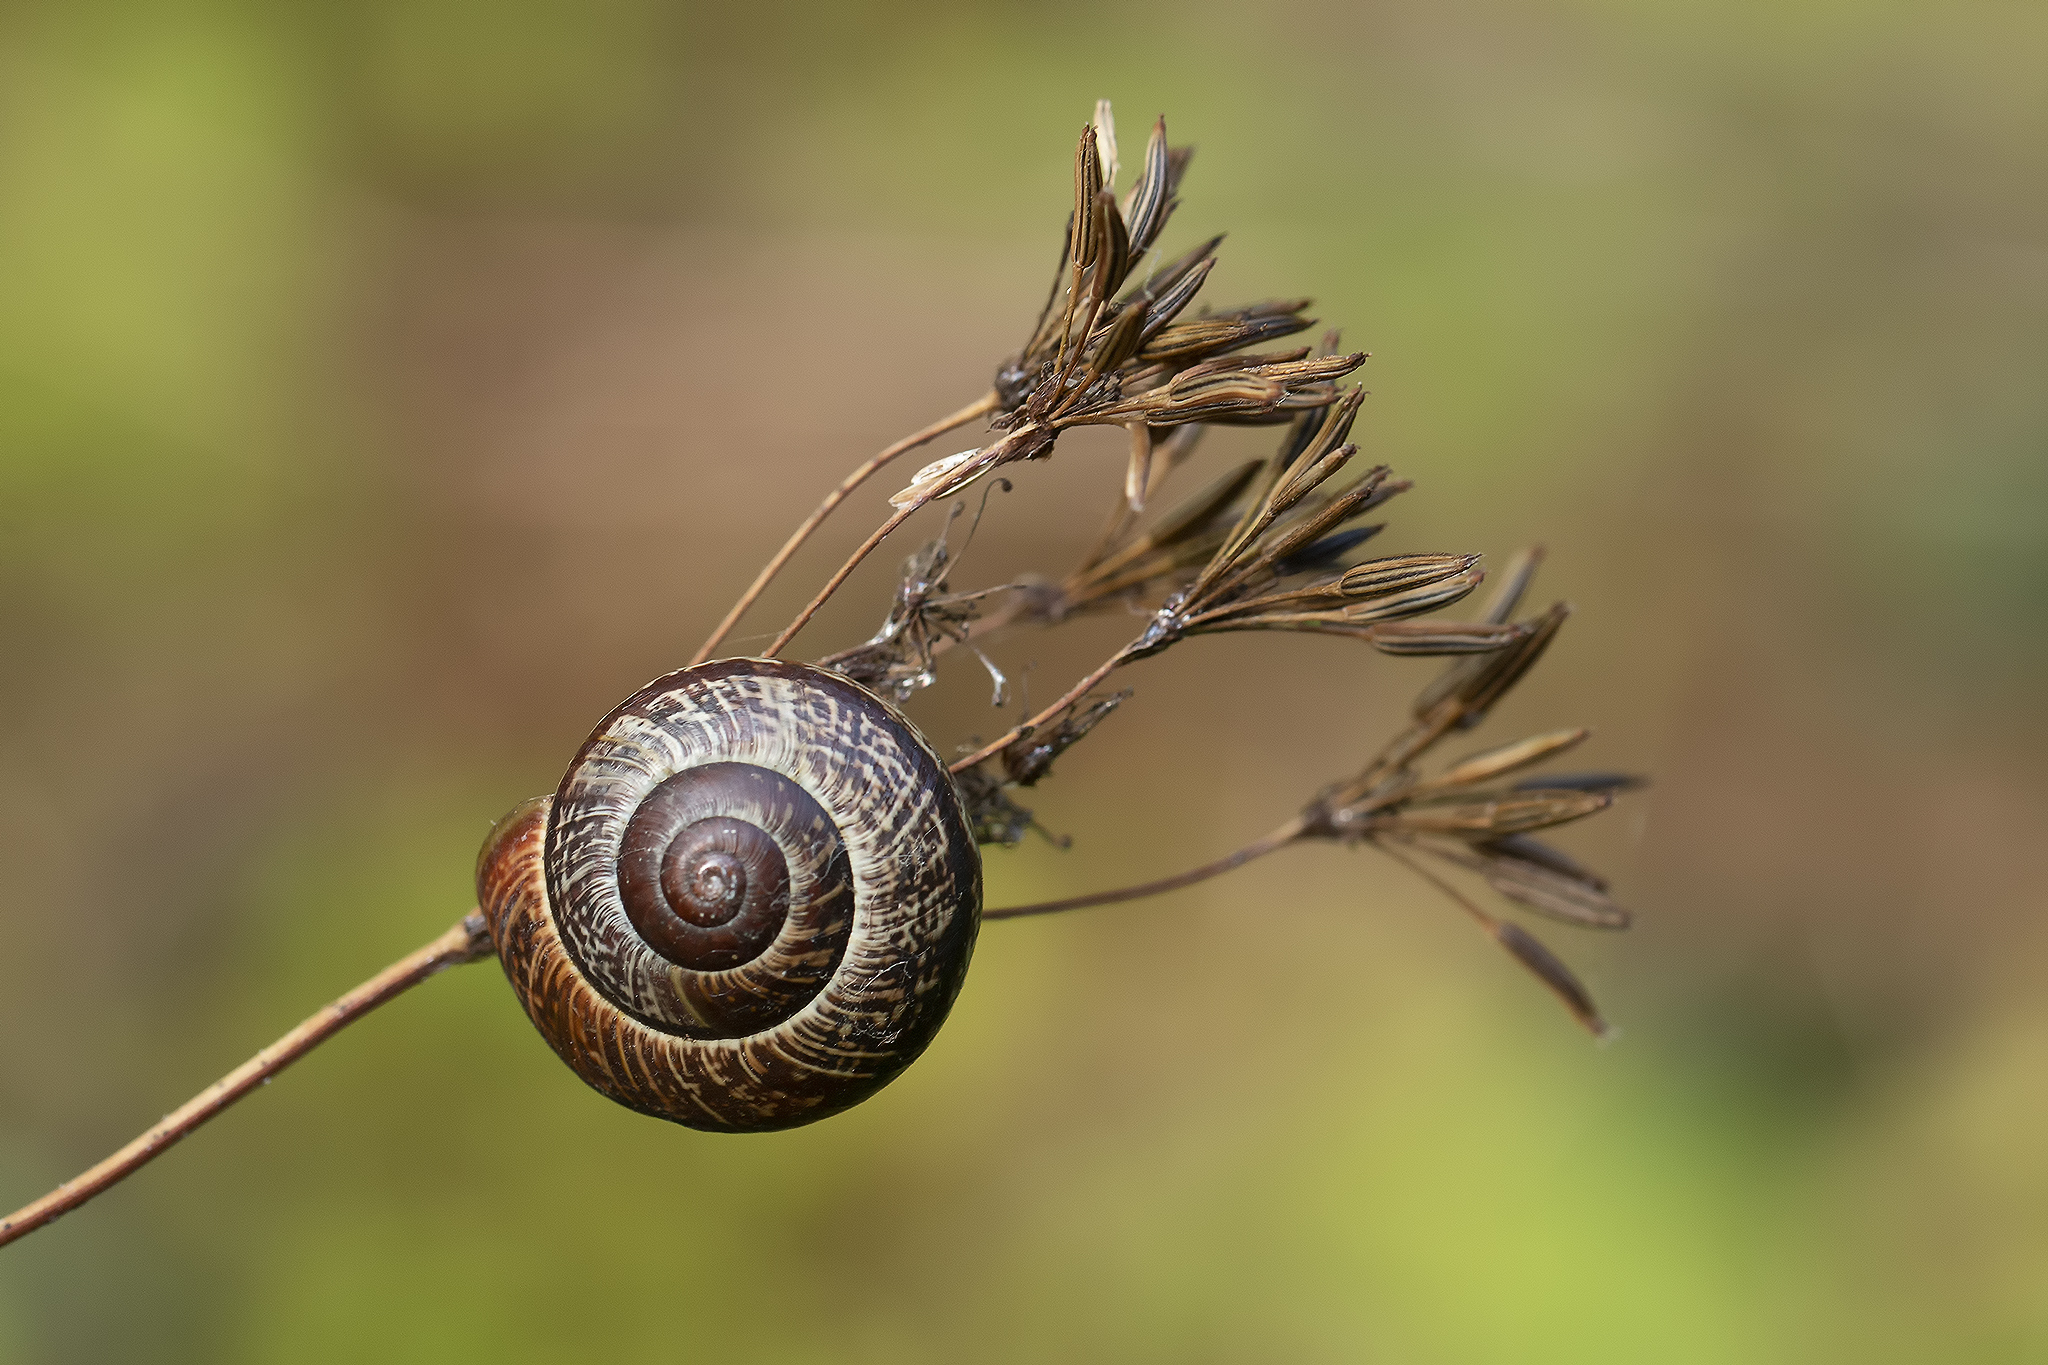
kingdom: Animalia
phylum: Mollusca
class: Gastropoda
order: Stylommatophora
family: Helicidae
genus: Arianta
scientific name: Arianta arbustorum
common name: Copse snail
